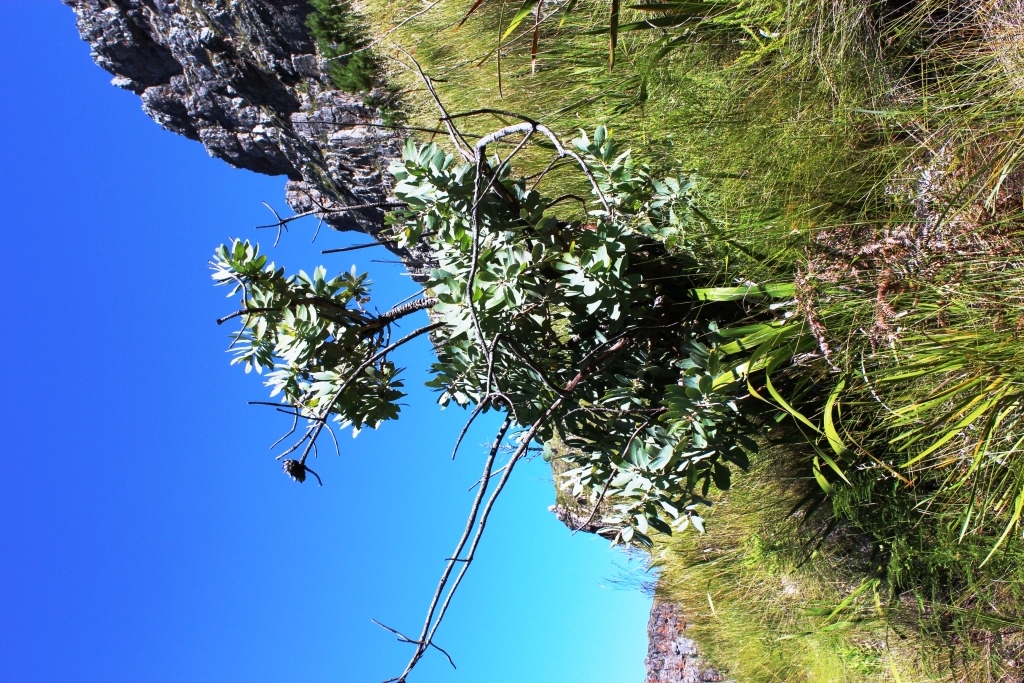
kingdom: Plantae
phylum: Tracheophyta
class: Magnoliopsida
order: Proteales
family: Proteaceae
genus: Protea
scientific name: Protea nitida
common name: Tree protea
